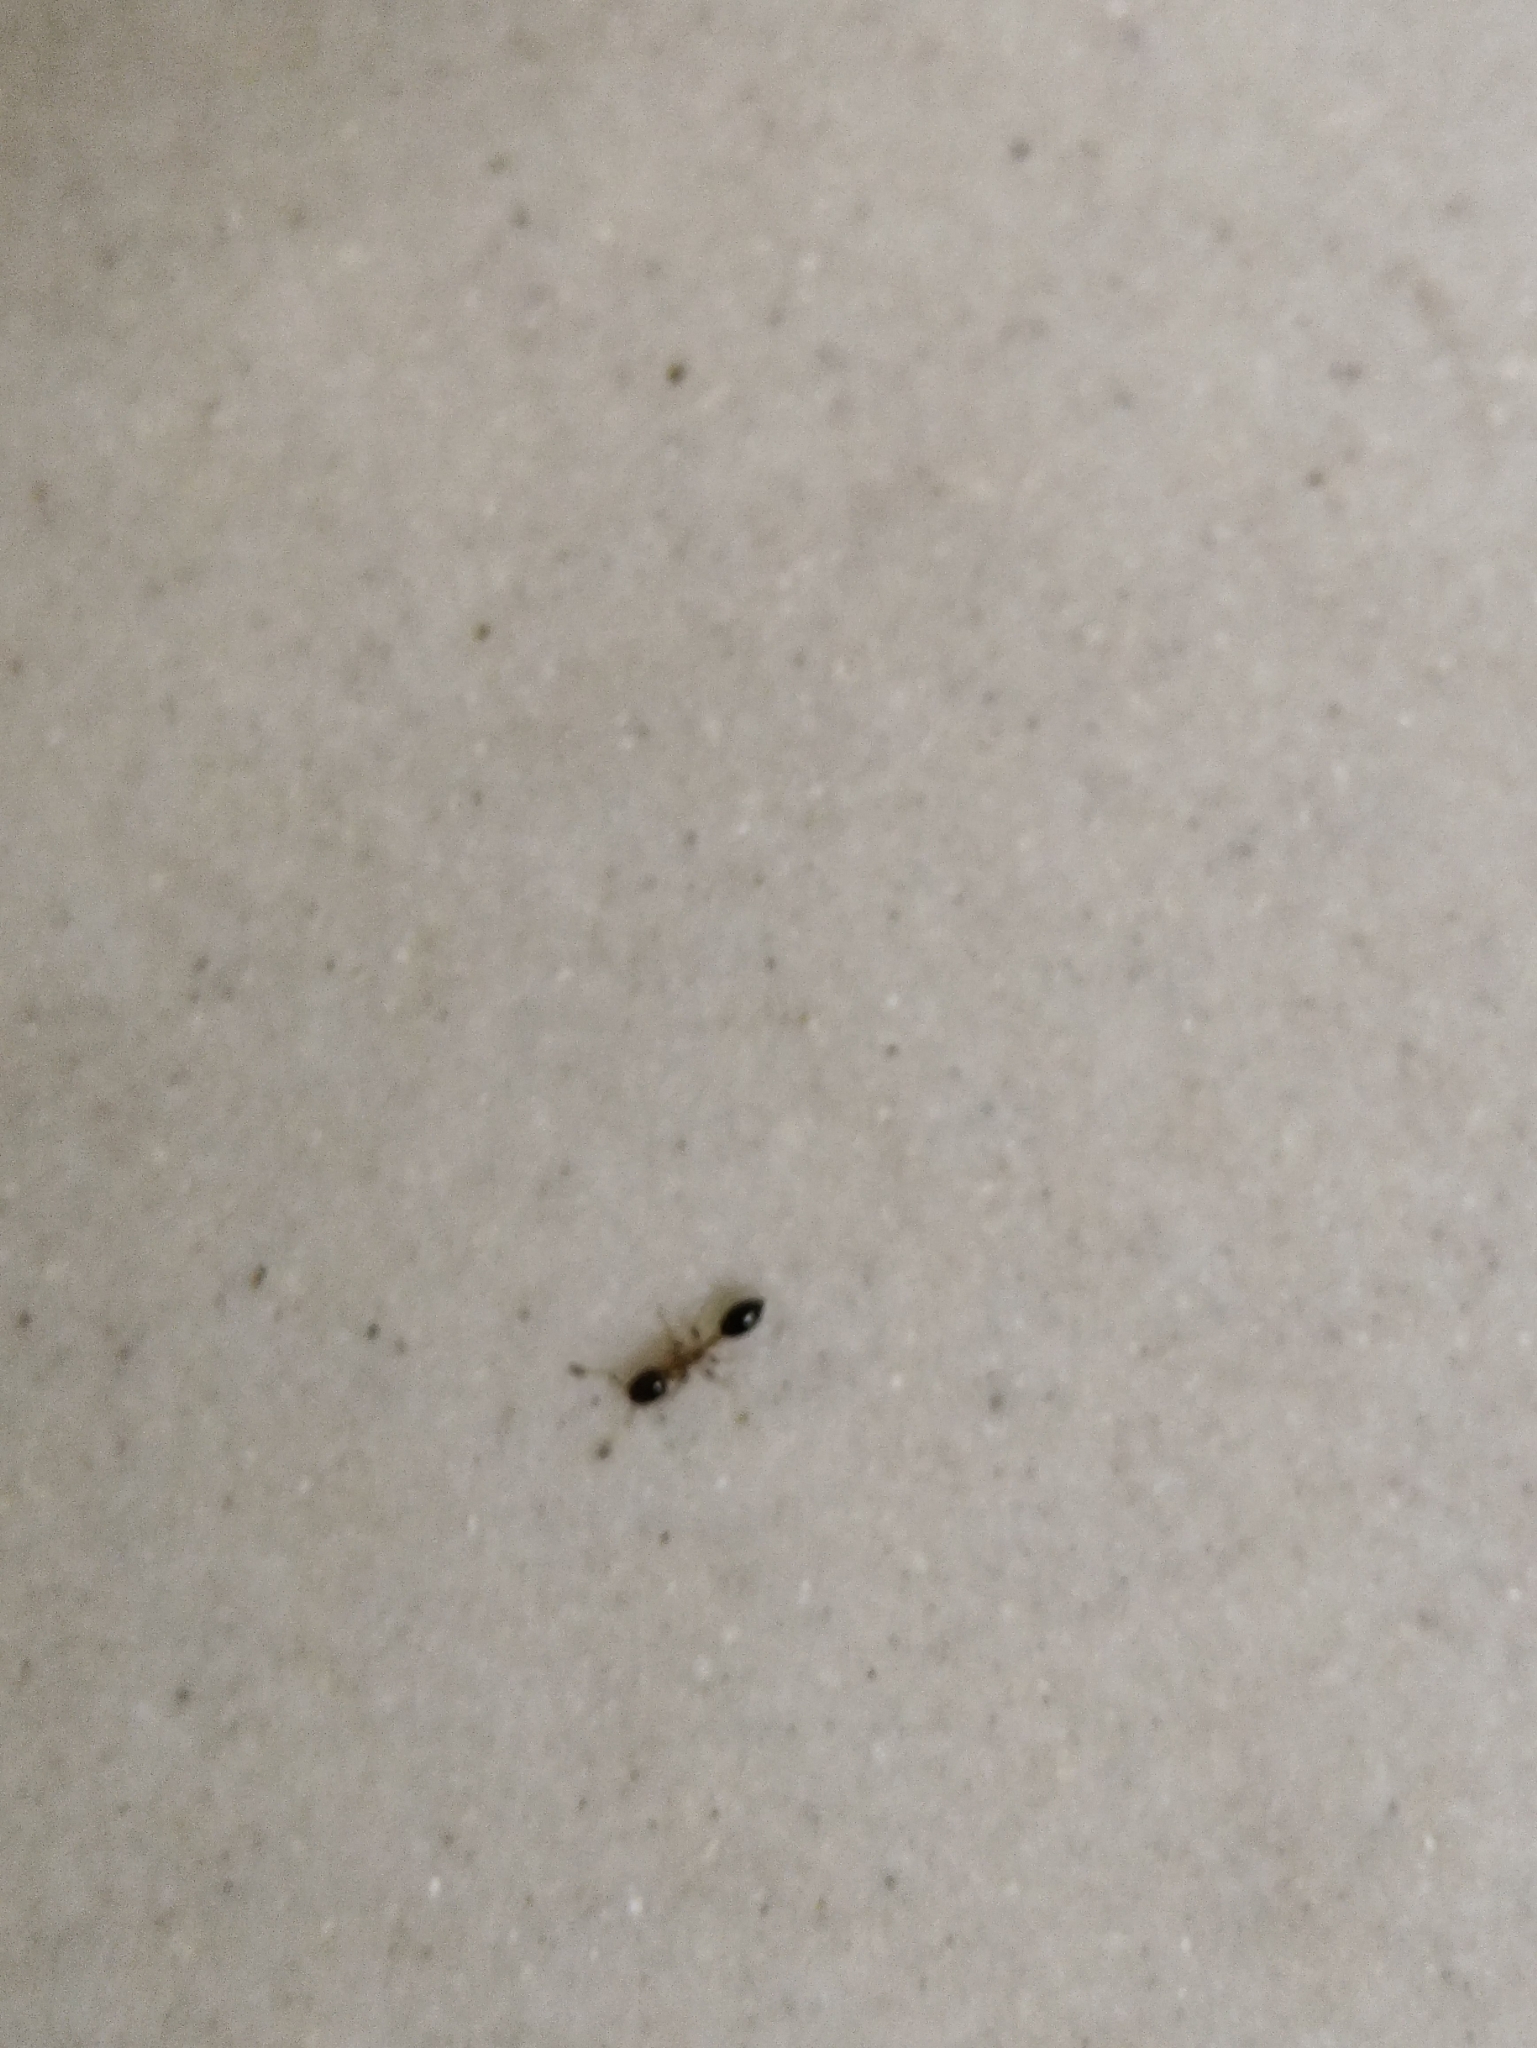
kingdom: Animalia
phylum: Arthropoda
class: Insecta
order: Hymenoptera
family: Formicidae
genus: Monomorium
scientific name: Monomorium floricola
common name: Bicolored trailing ant
